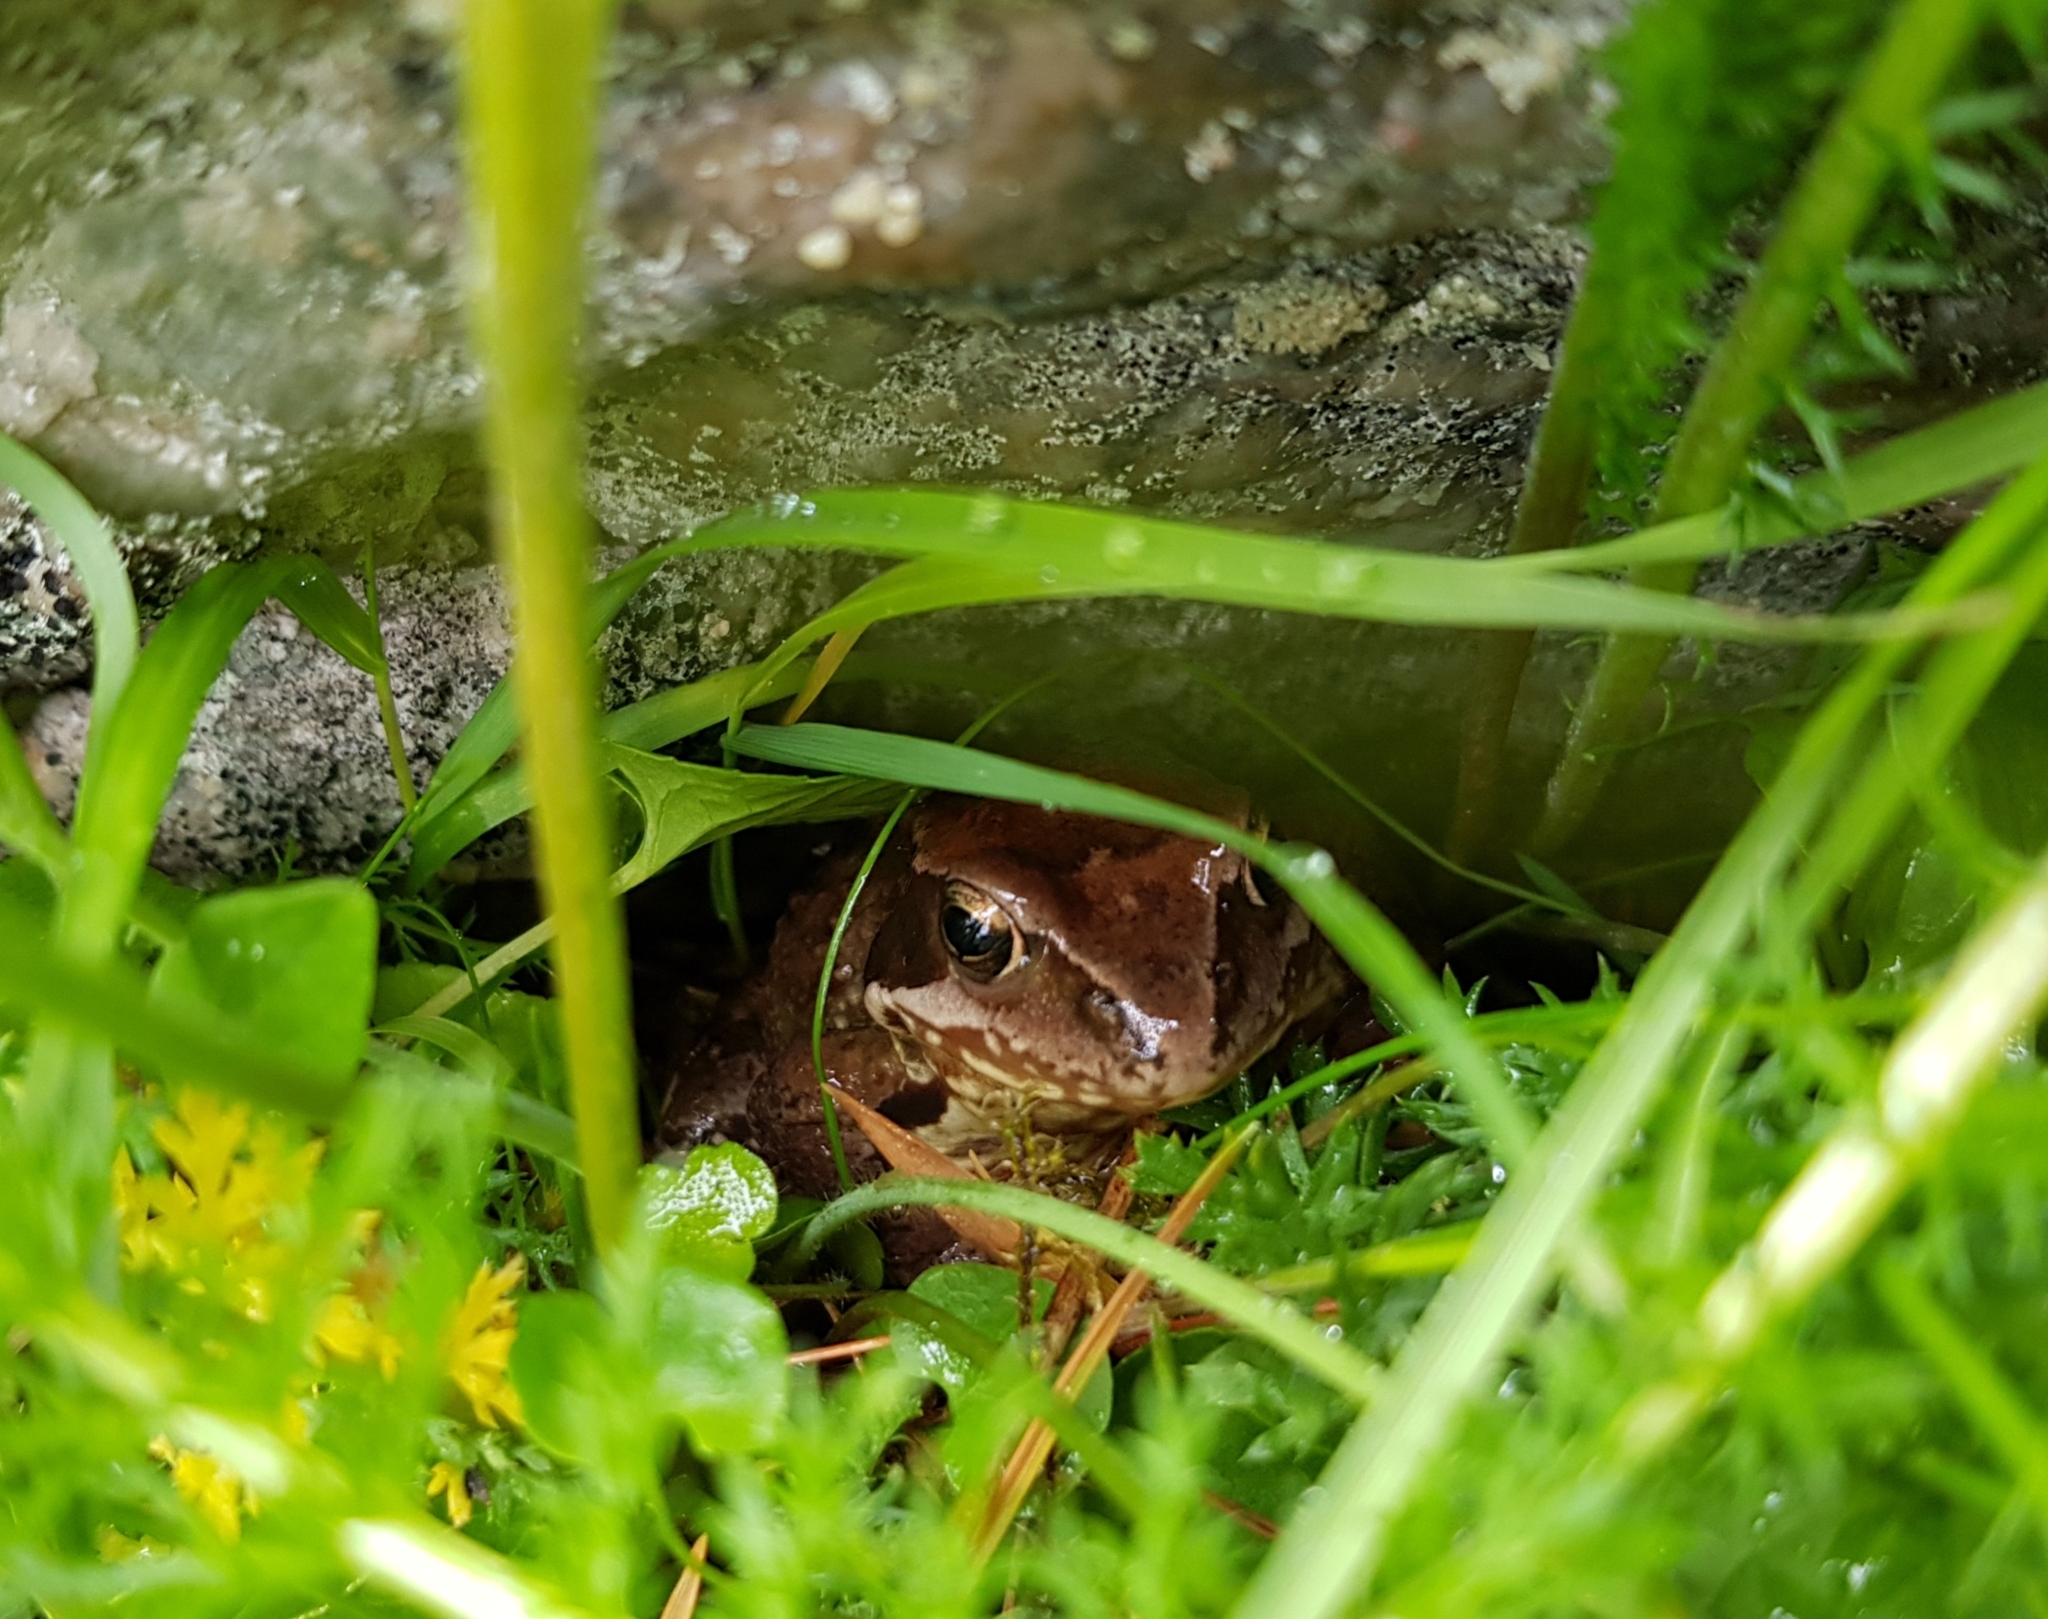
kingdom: Animalia
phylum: Chordata
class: Amphibia
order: Anura
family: Ranidae
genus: Rana
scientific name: Rana temporaria
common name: Common frog
